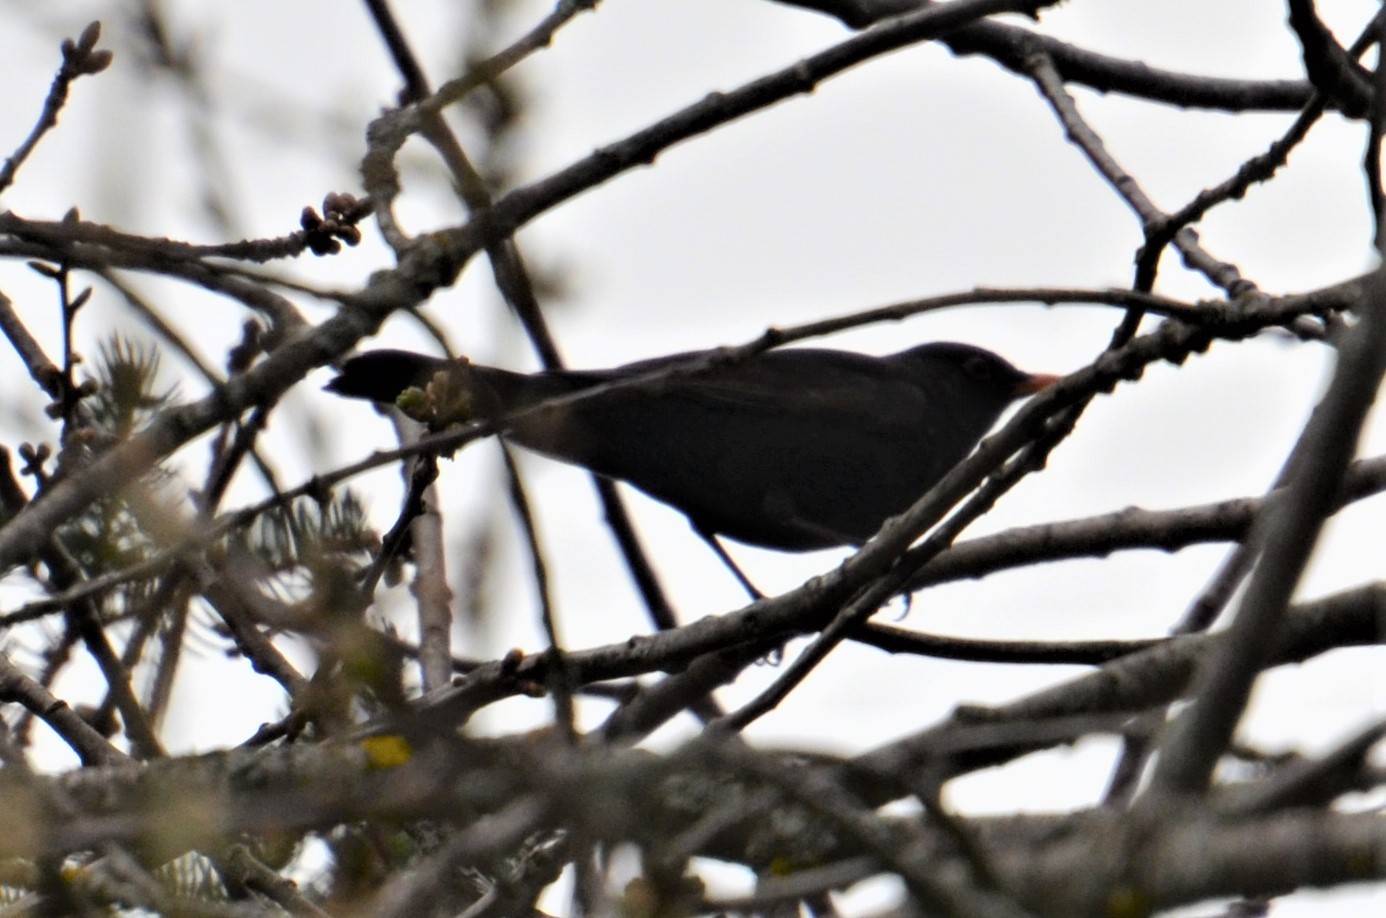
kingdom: Animalia
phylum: Chordata
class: Aves
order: Passeriformes
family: Turdidae
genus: Turdus
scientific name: Turdus merula
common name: Common blackbird
